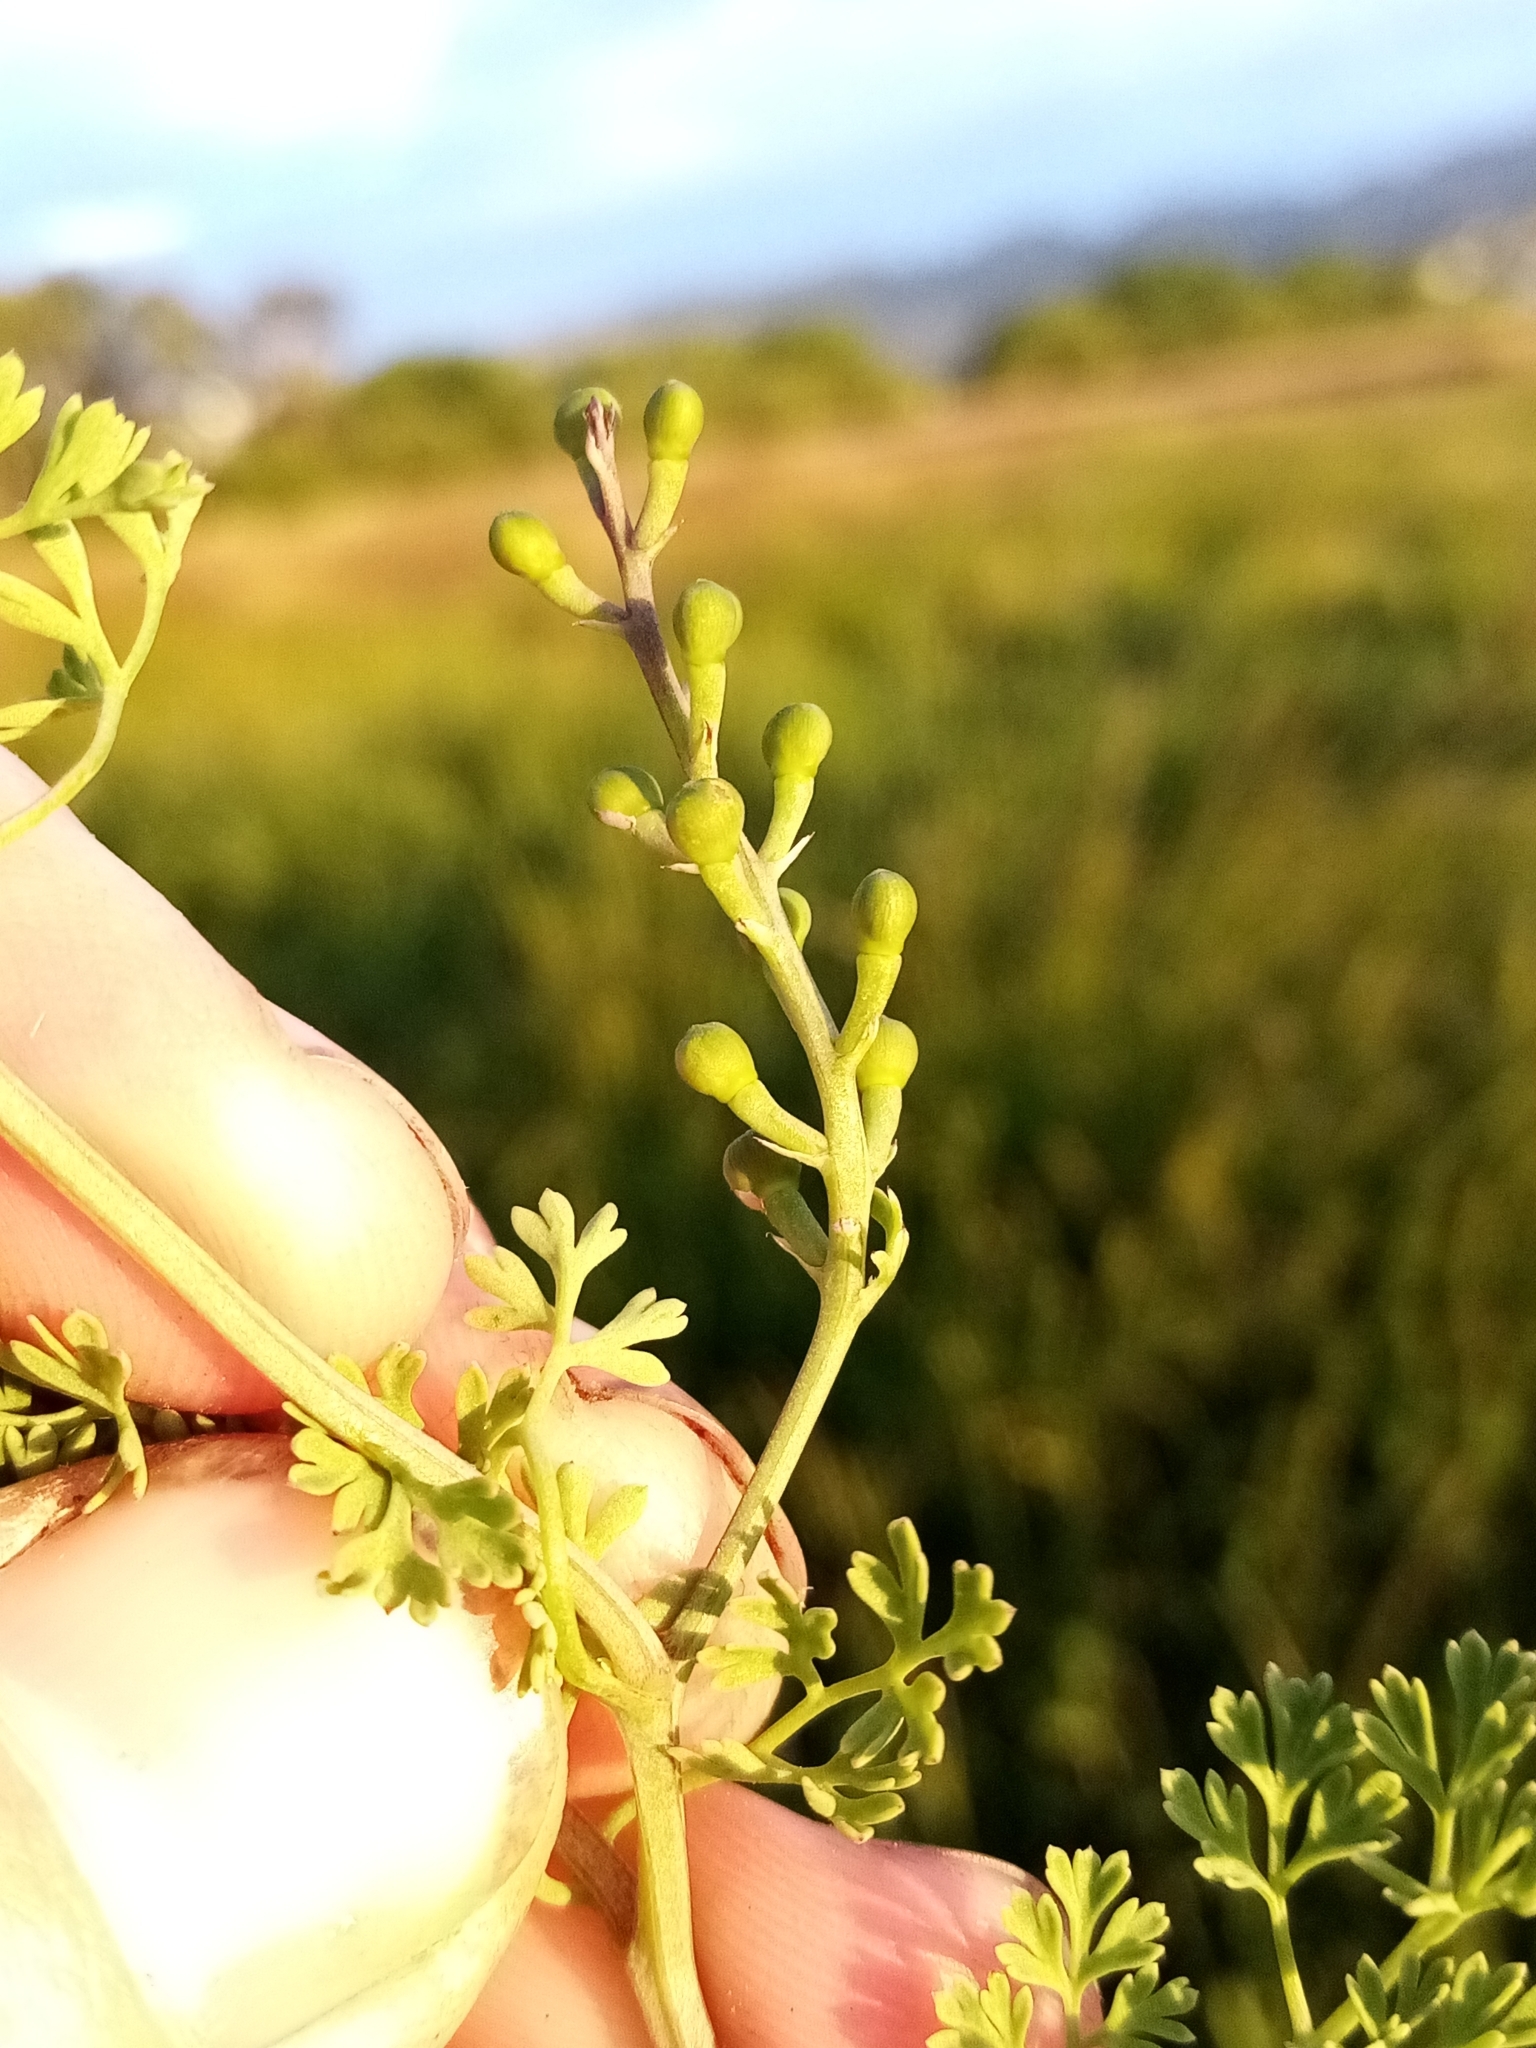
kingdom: Plantae
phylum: Tracheophyta
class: Magnoliopsida
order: Ranunculales
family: Papaveraceae
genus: Fumaria
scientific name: Fumaria officinalis
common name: Common fumitory
